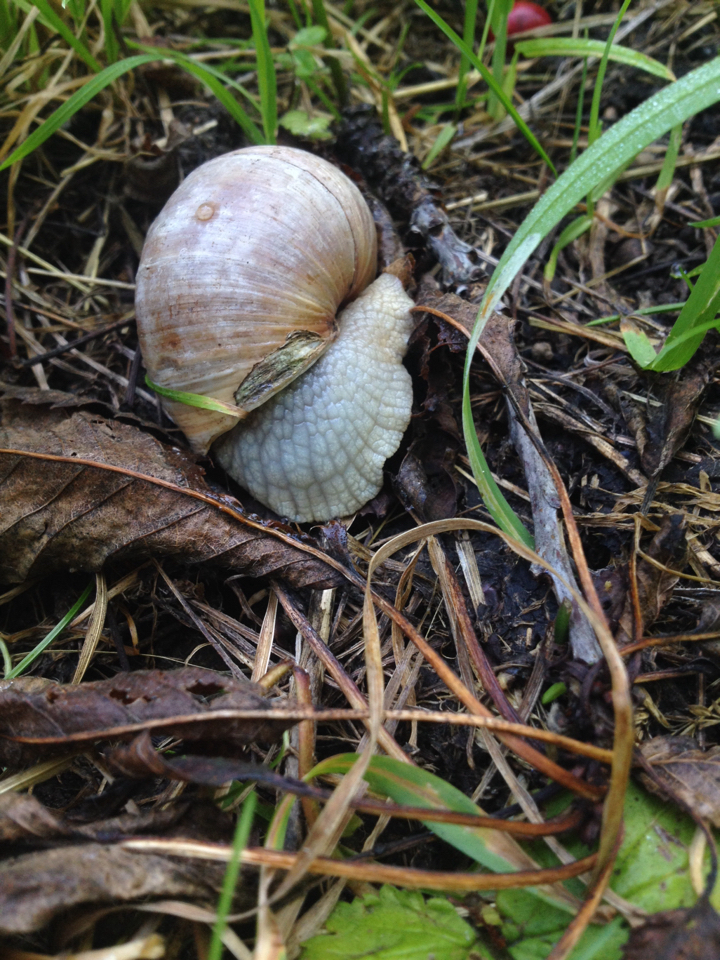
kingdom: Animalia
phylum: Mollusca
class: Gastropoda
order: Stylommatophora
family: Helicidae
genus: Helix
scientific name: Helix pomatia
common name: Roman snail
